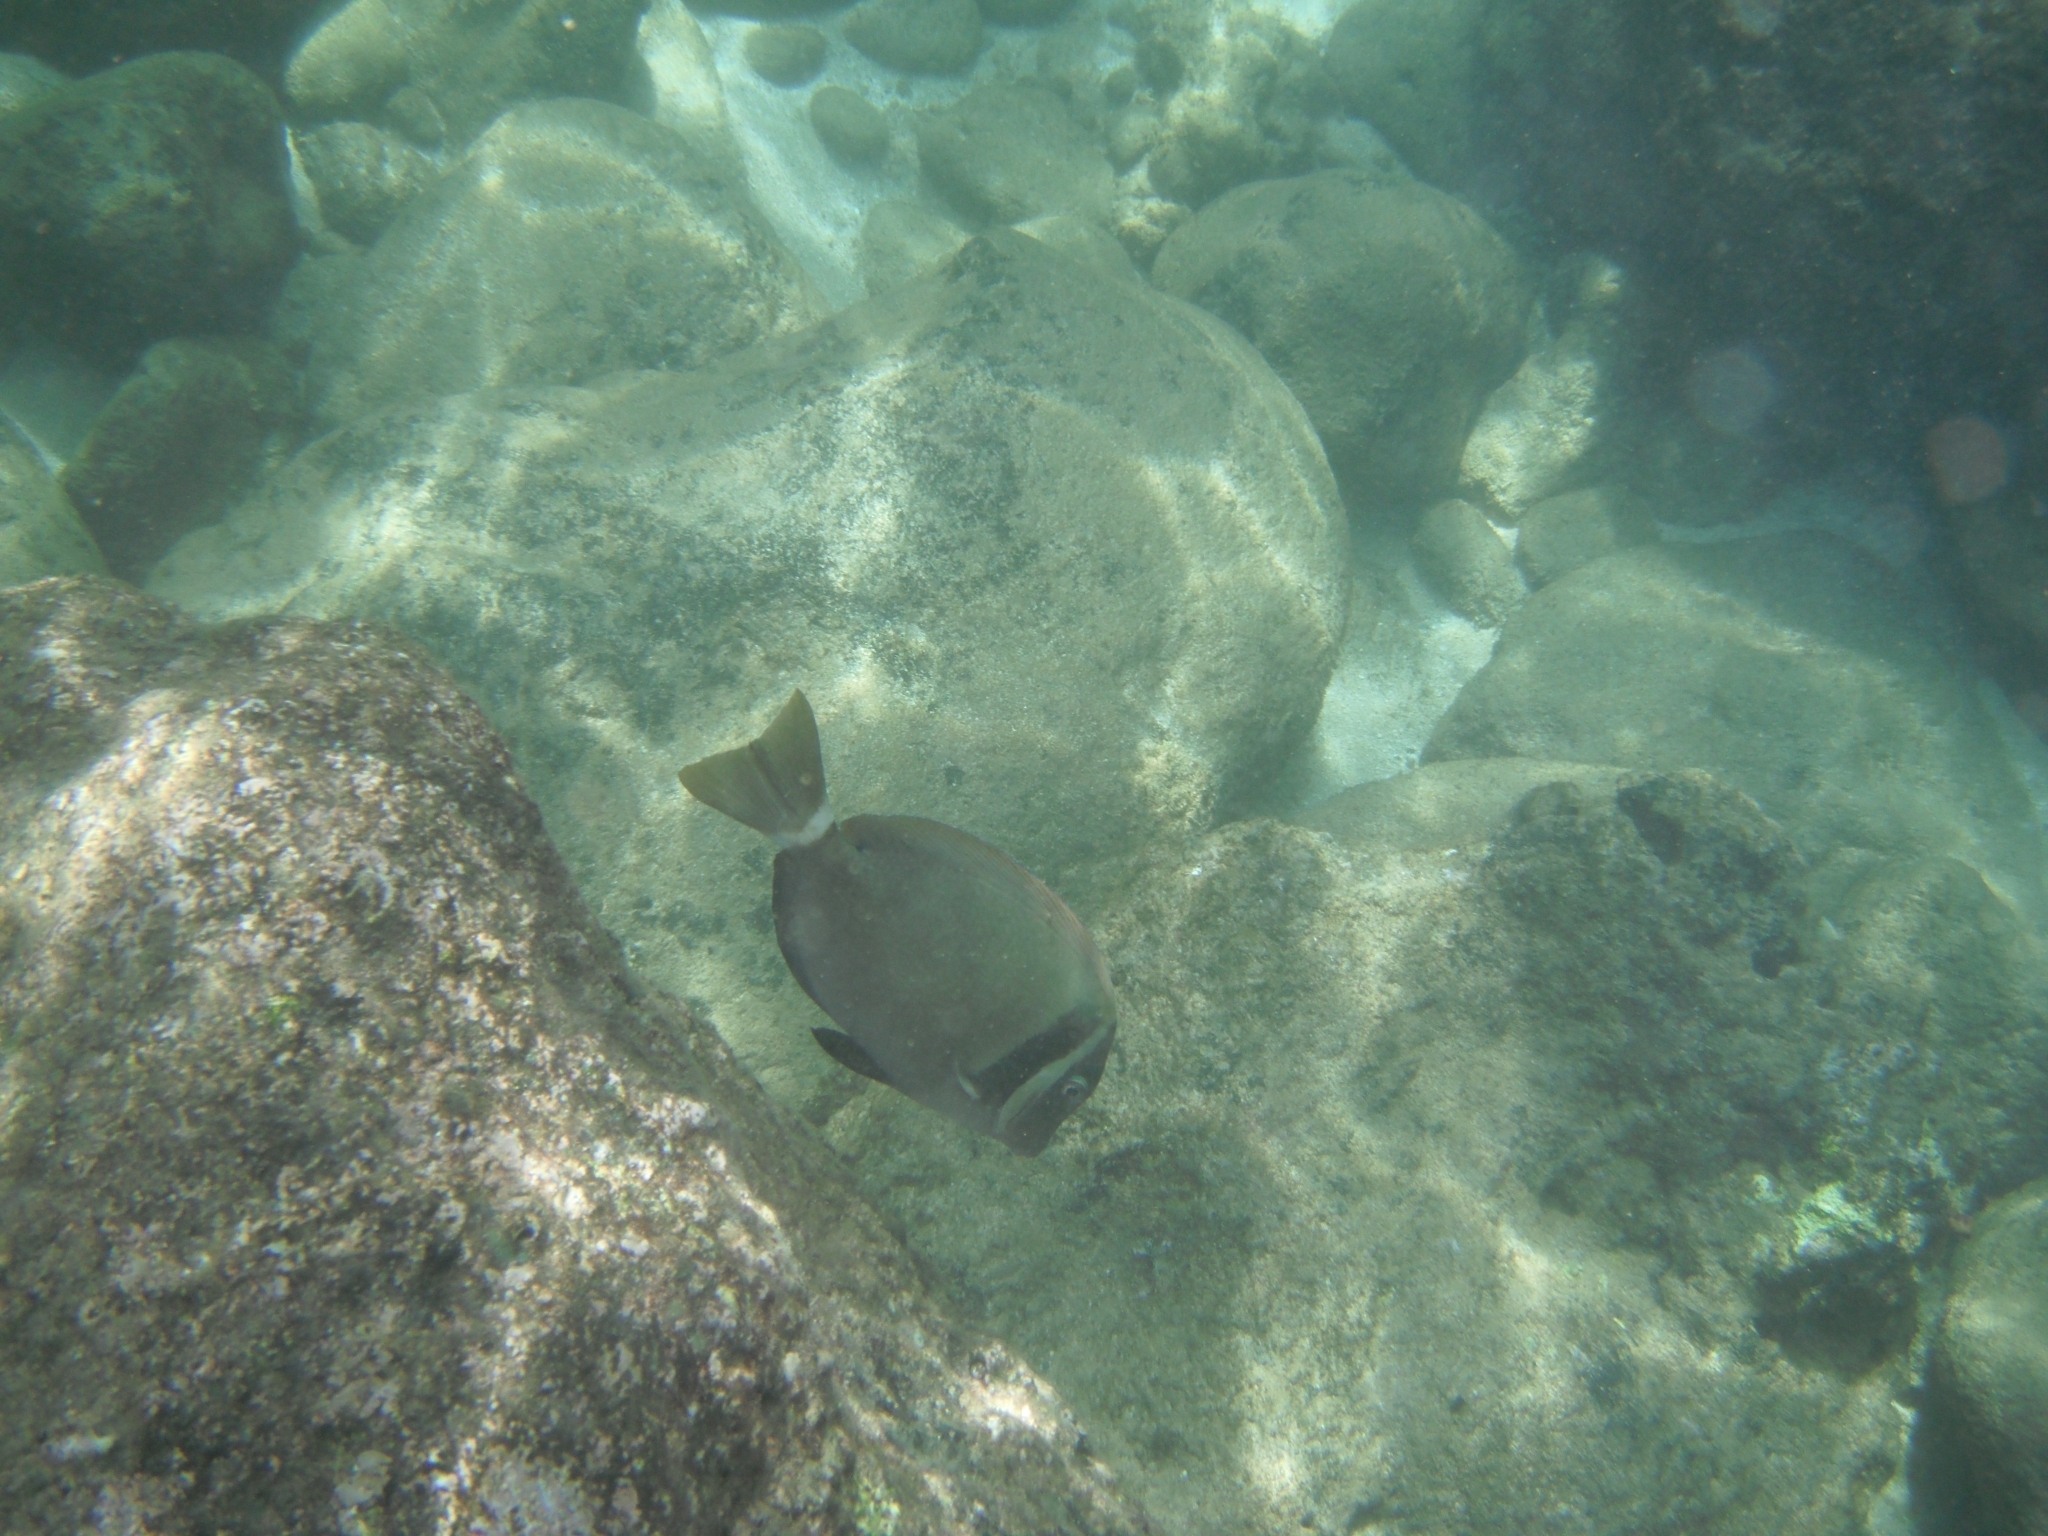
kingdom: Animalia
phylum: Chordata
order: Perciformes
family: Acanthuridae
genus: Acanthurus
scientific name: Acanthurus leucopareius
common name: Head-band surgeonfish
